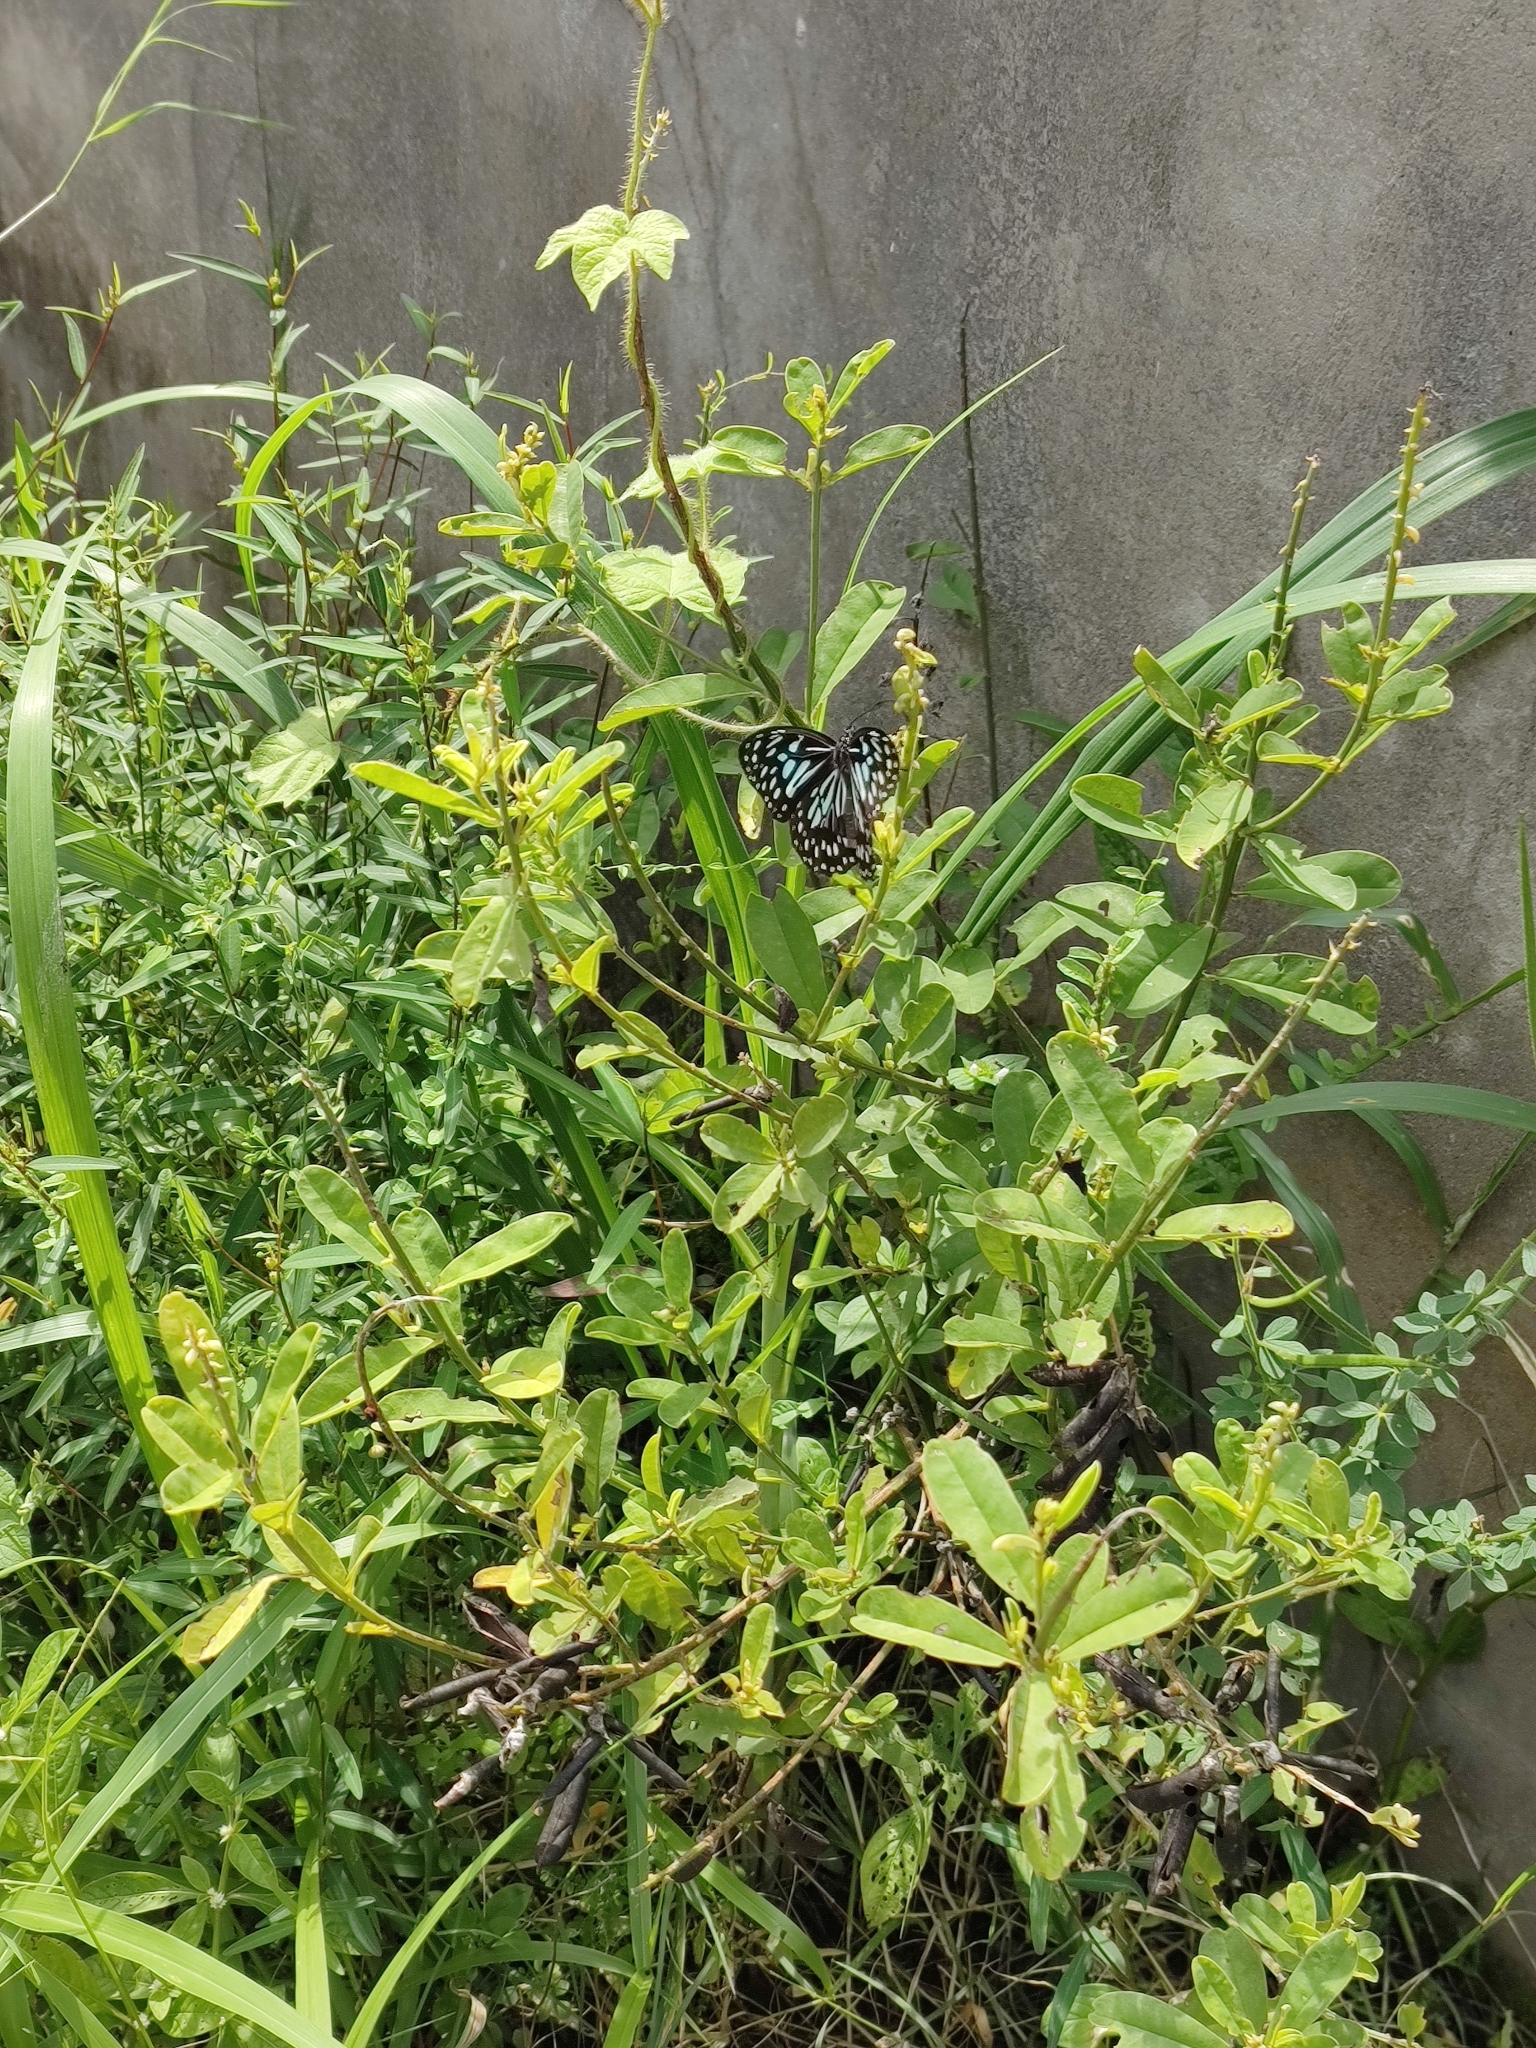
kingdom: Animalia
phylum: Arthropoda
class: Insecta
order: Lepidoptera
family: Nymphalidae
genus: Tirumala
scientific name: Tirumala septentrionis
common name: Dark blue tiger butterfly
